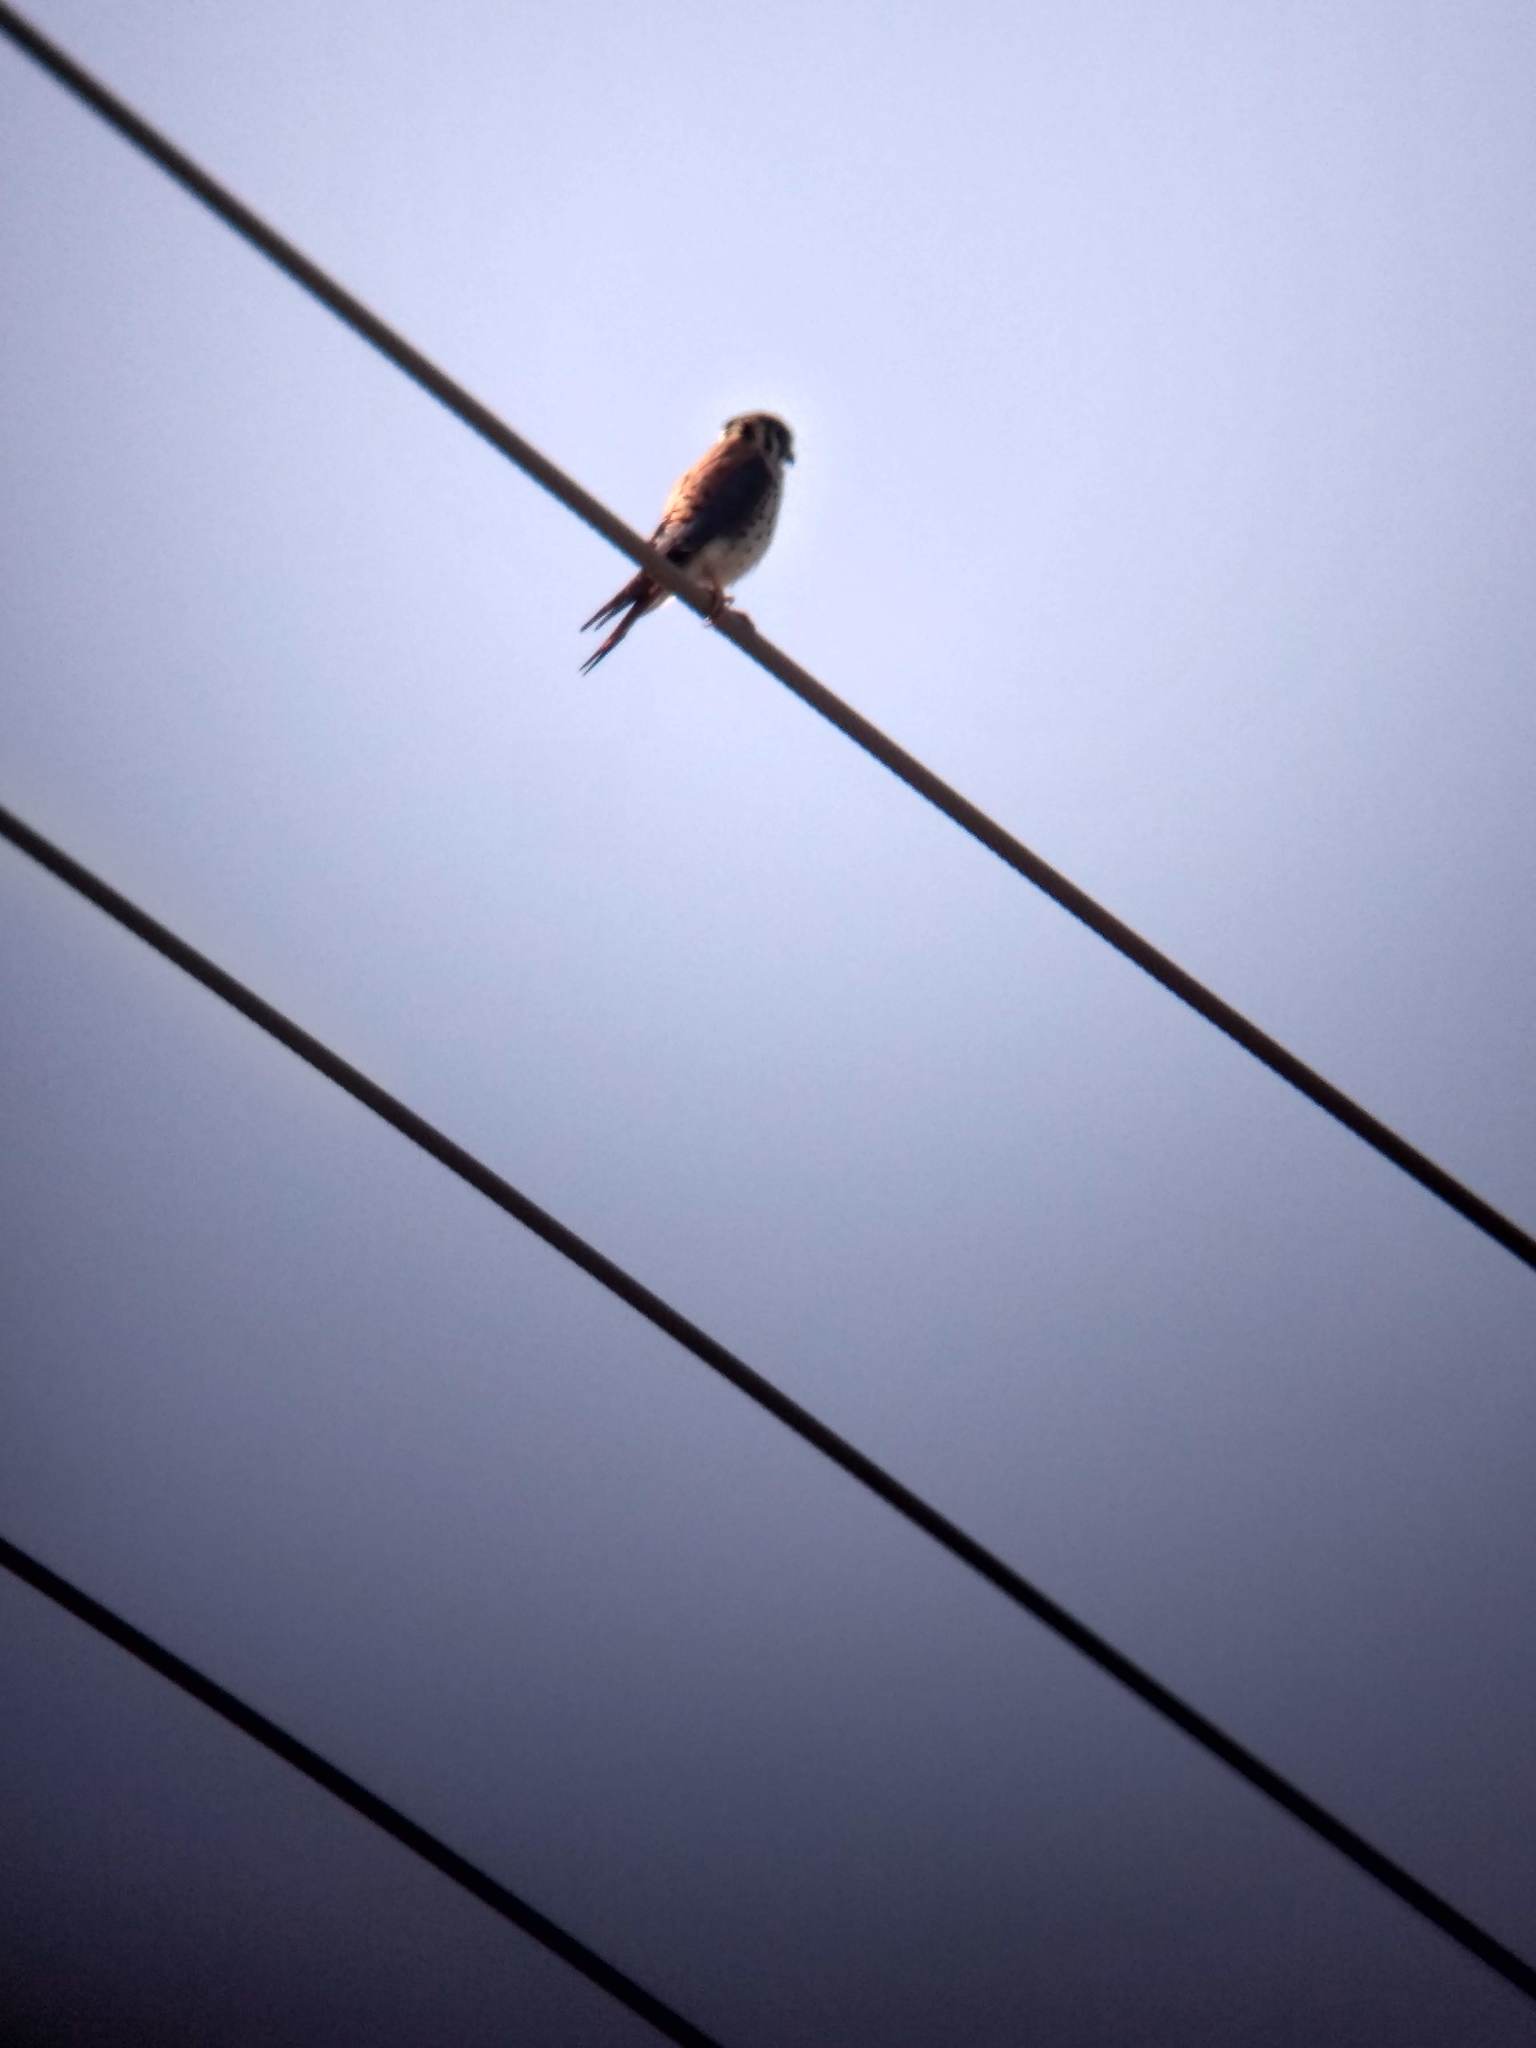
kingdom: Animalia
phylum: Chordata
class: Aves
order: Falconiformes
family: Falconidae
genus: Falco
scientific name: Falco sparverius
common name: American kestrel
